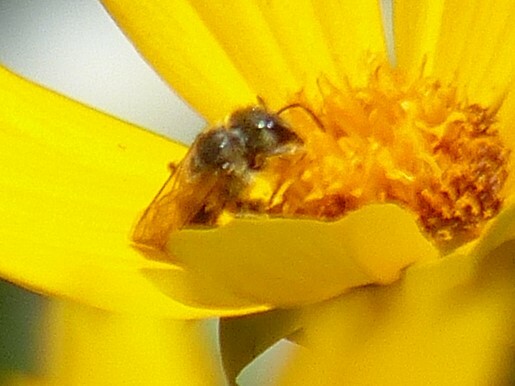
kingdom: Animalia
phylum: Arthropoda
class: Insecta
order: Hymenoptera
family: Halictidae
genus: Halictus
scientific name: Halictus ligatus
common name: Ligated furrow bee
